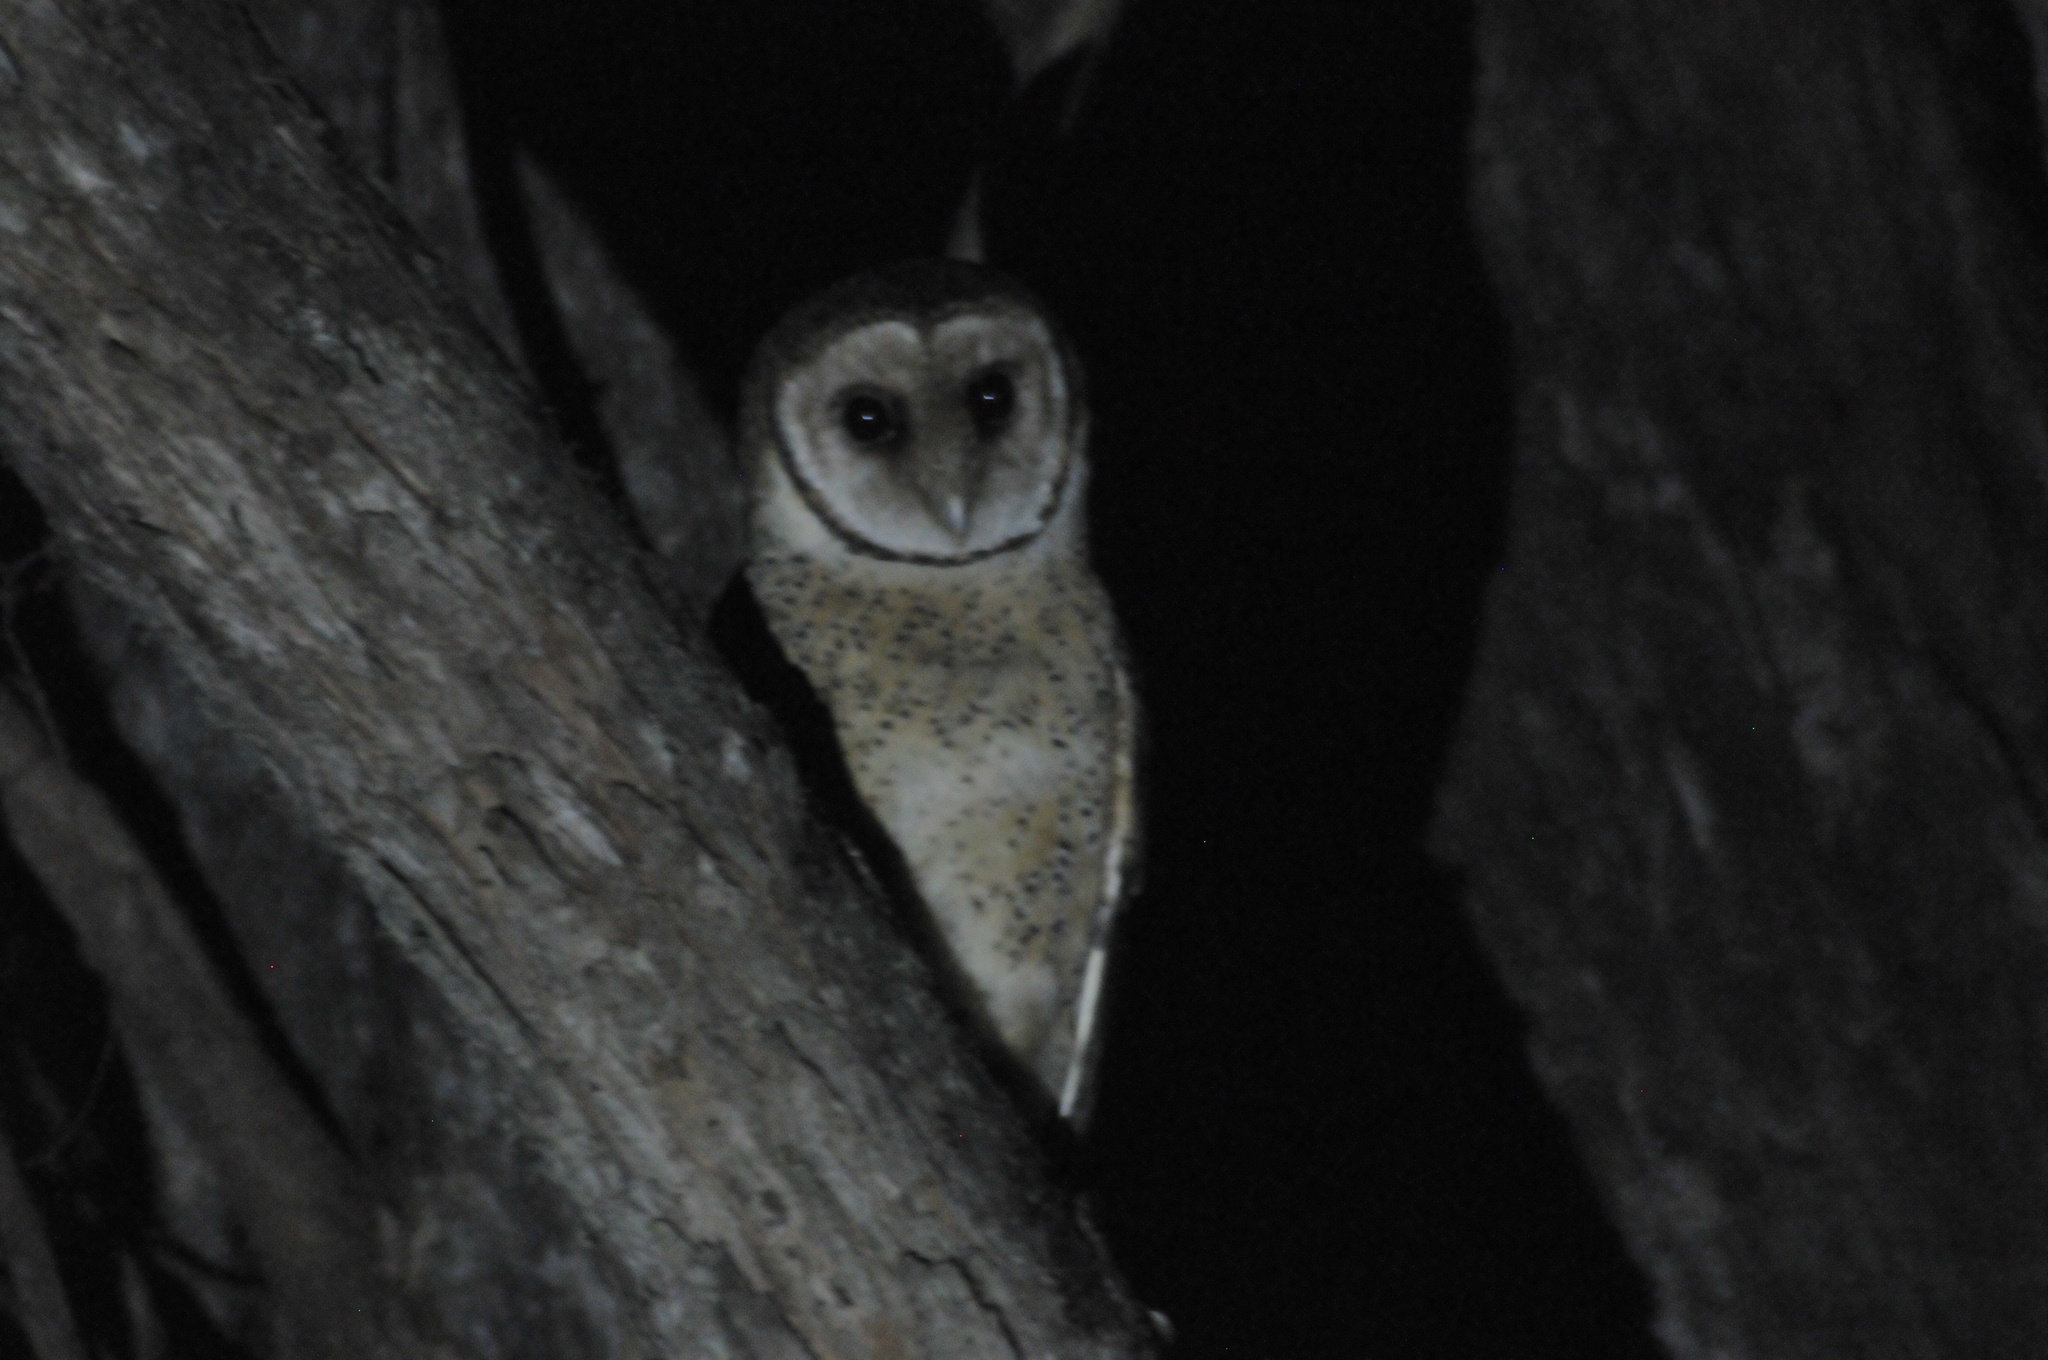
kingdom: Animalia
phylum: Chordata
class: Aves
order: Strigiformes
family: Tytonidae
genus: Tyto
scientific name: Tyto novaehollandiae
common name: Australian masked owl
